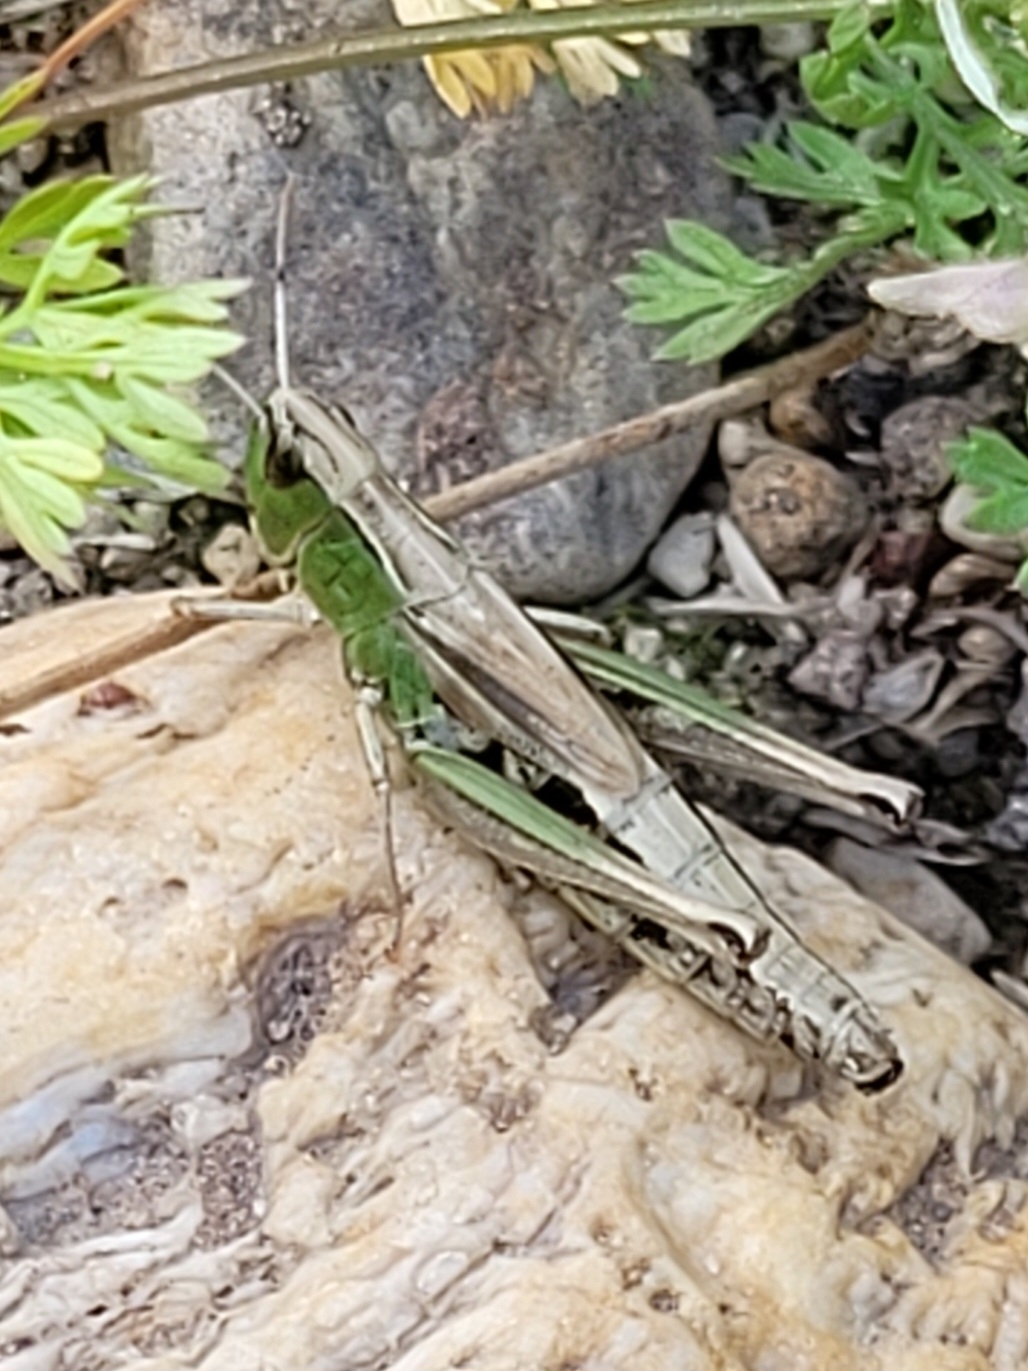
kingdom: Animalia
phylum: Arthropoda
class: Insecta
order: Orthoptera
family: Acrididae
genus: Pseudochorthippus
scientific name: Pseudochorthippus parallelus
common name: Meadow grasshopper
